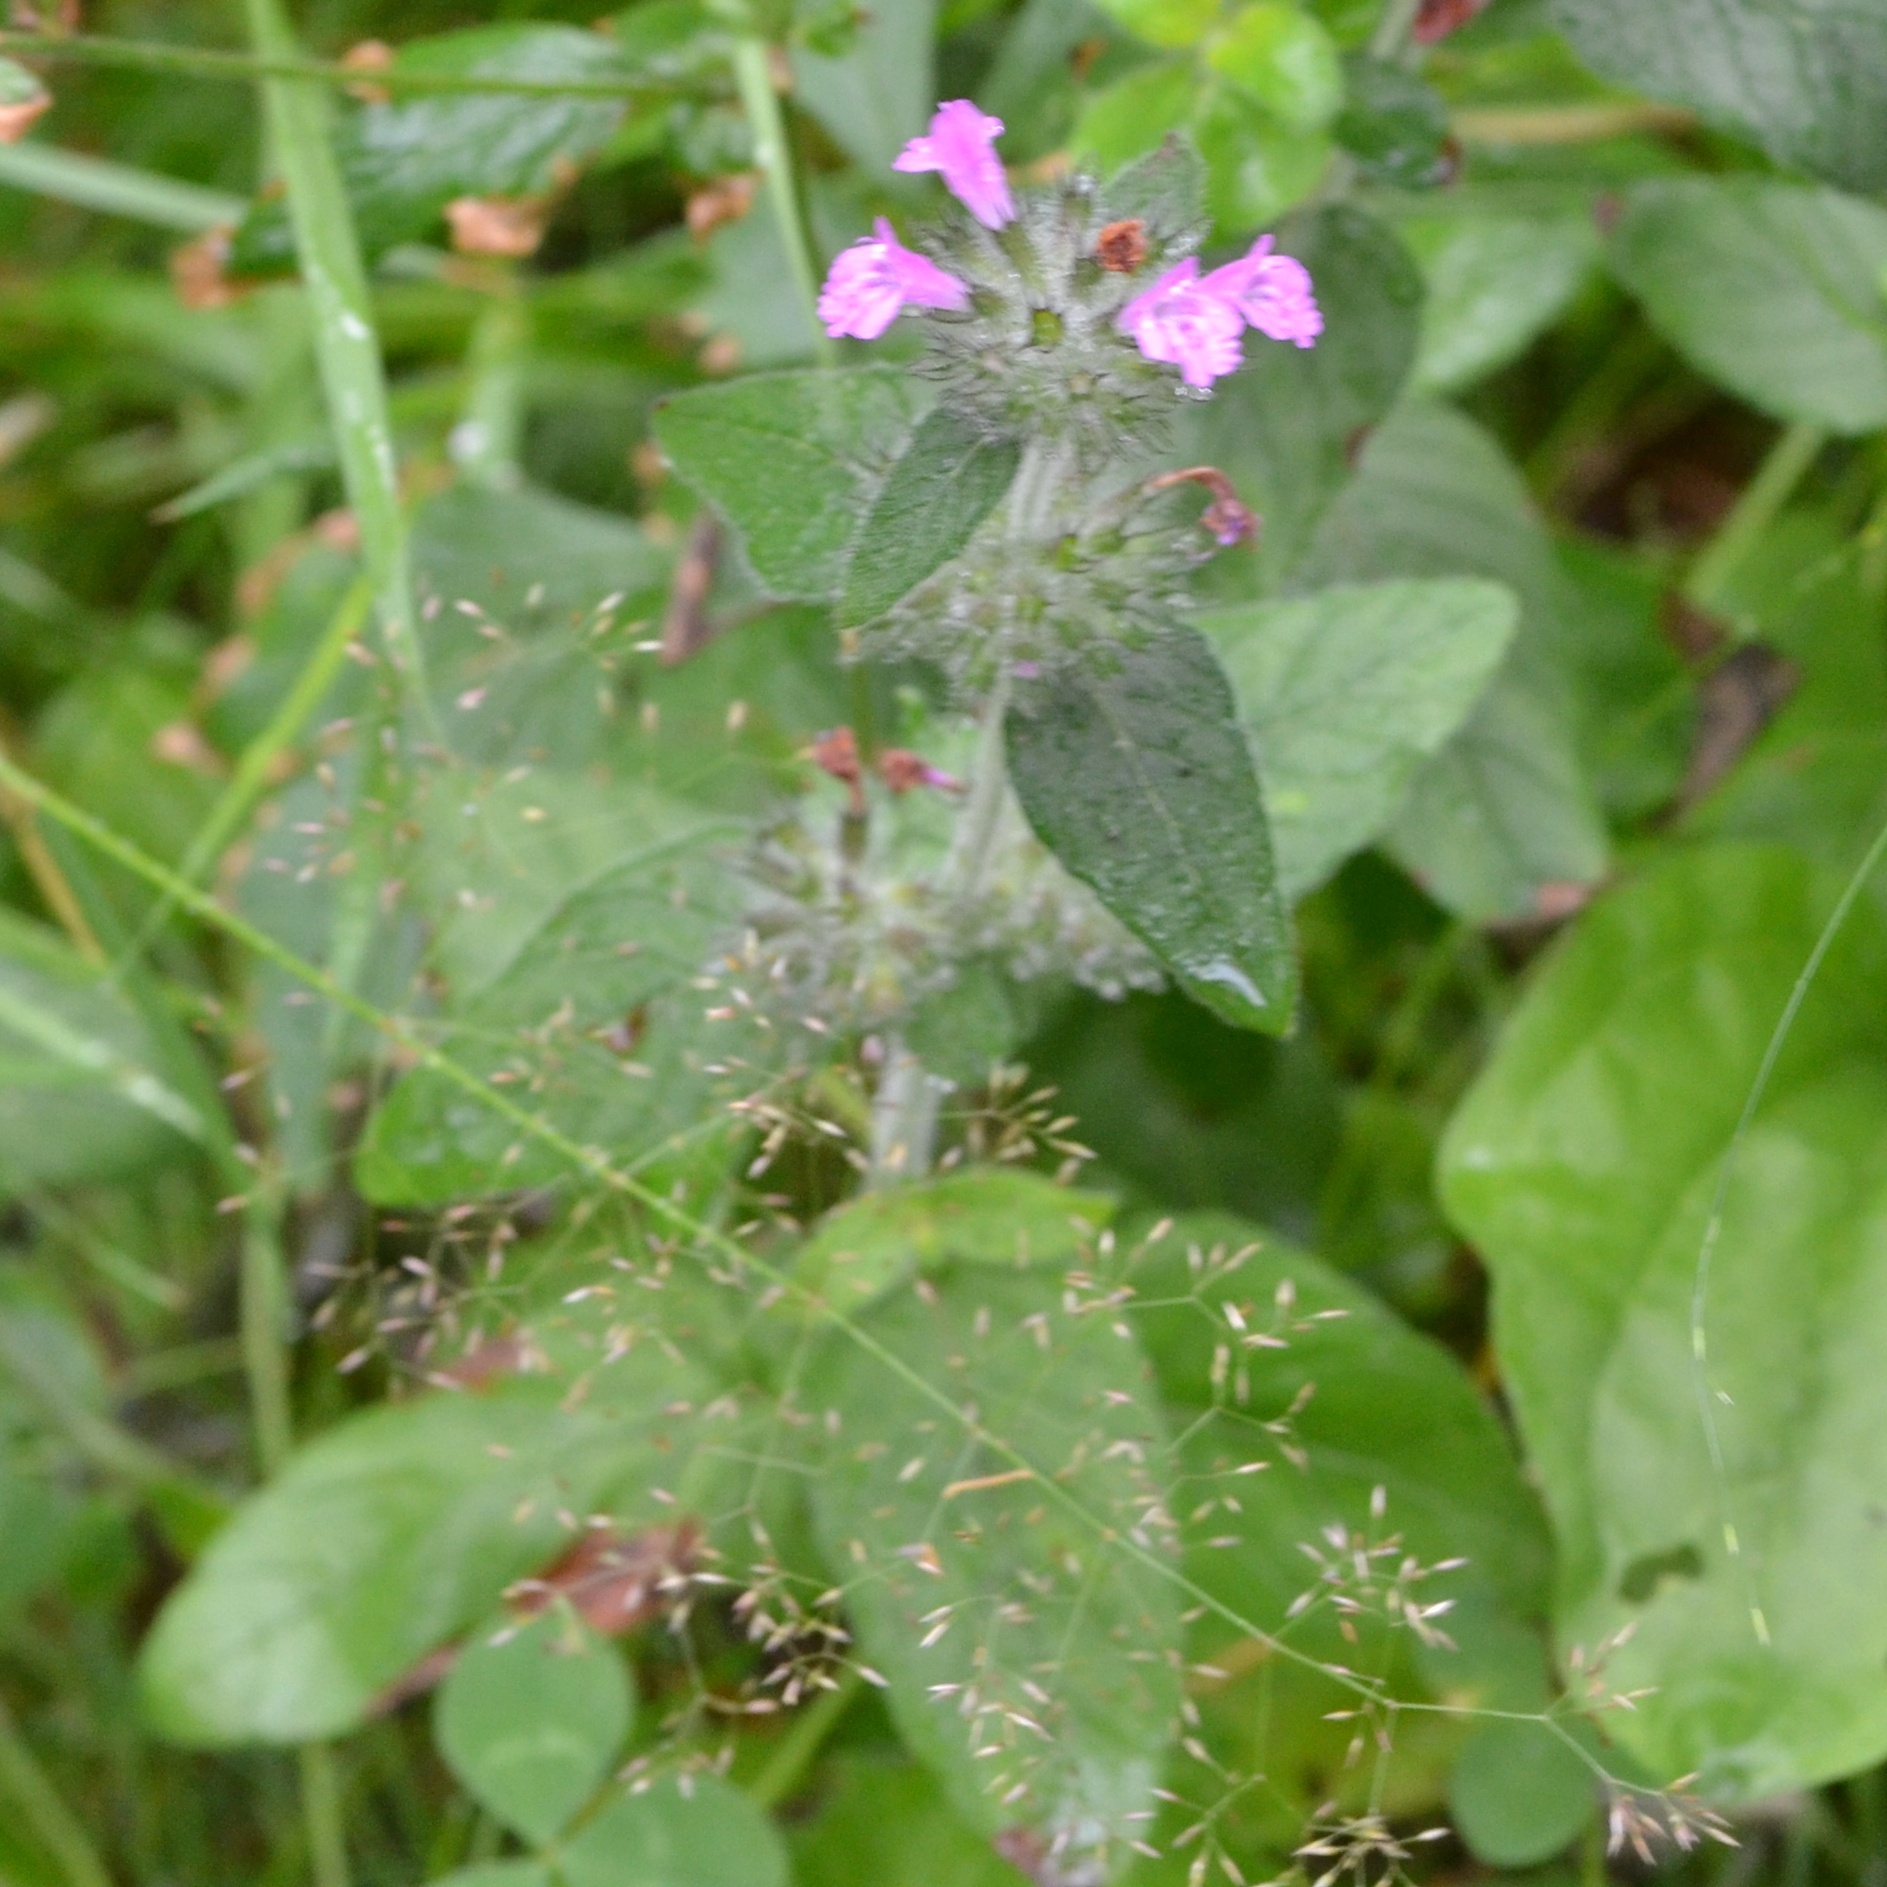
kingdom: Plantae
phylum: Tracheophyta
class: Magnoliopsida
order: Lamiales
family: Lamiaceae
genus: Clinopodium
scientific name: Clinopodium vulgare
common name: Wild basil
